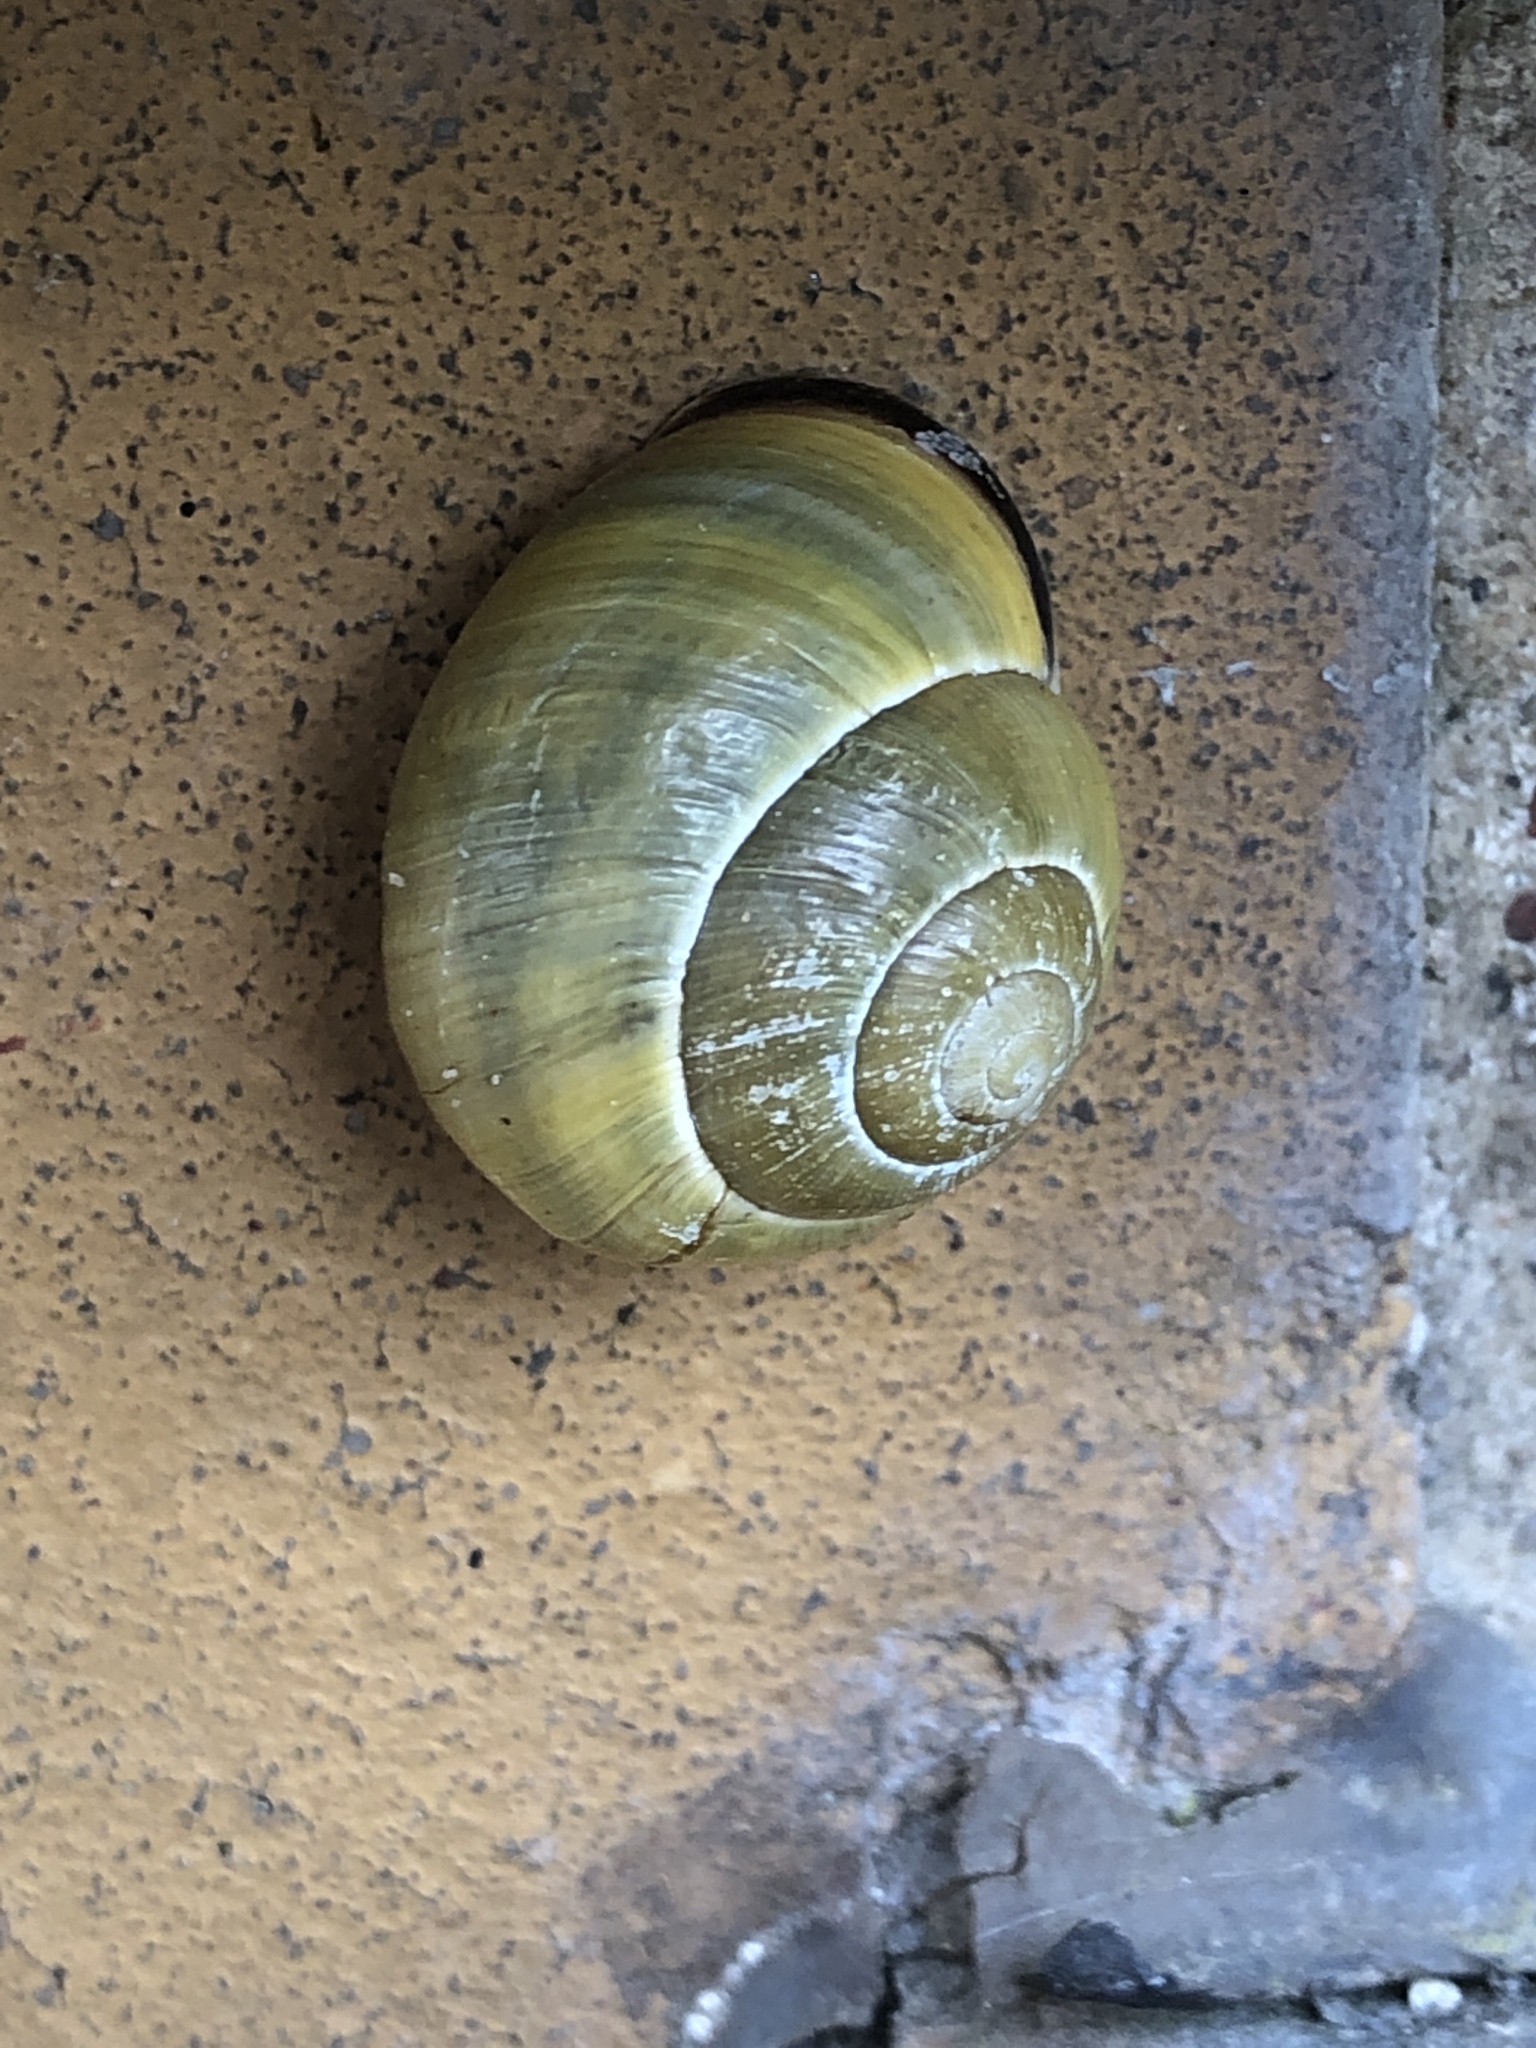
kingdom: Animalia
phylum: Mollusca
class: Gastropoda
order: Stylommatophora
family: Helicidae
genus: Cepaea
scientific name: Cepaea nemoralis
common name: Grovesnail
